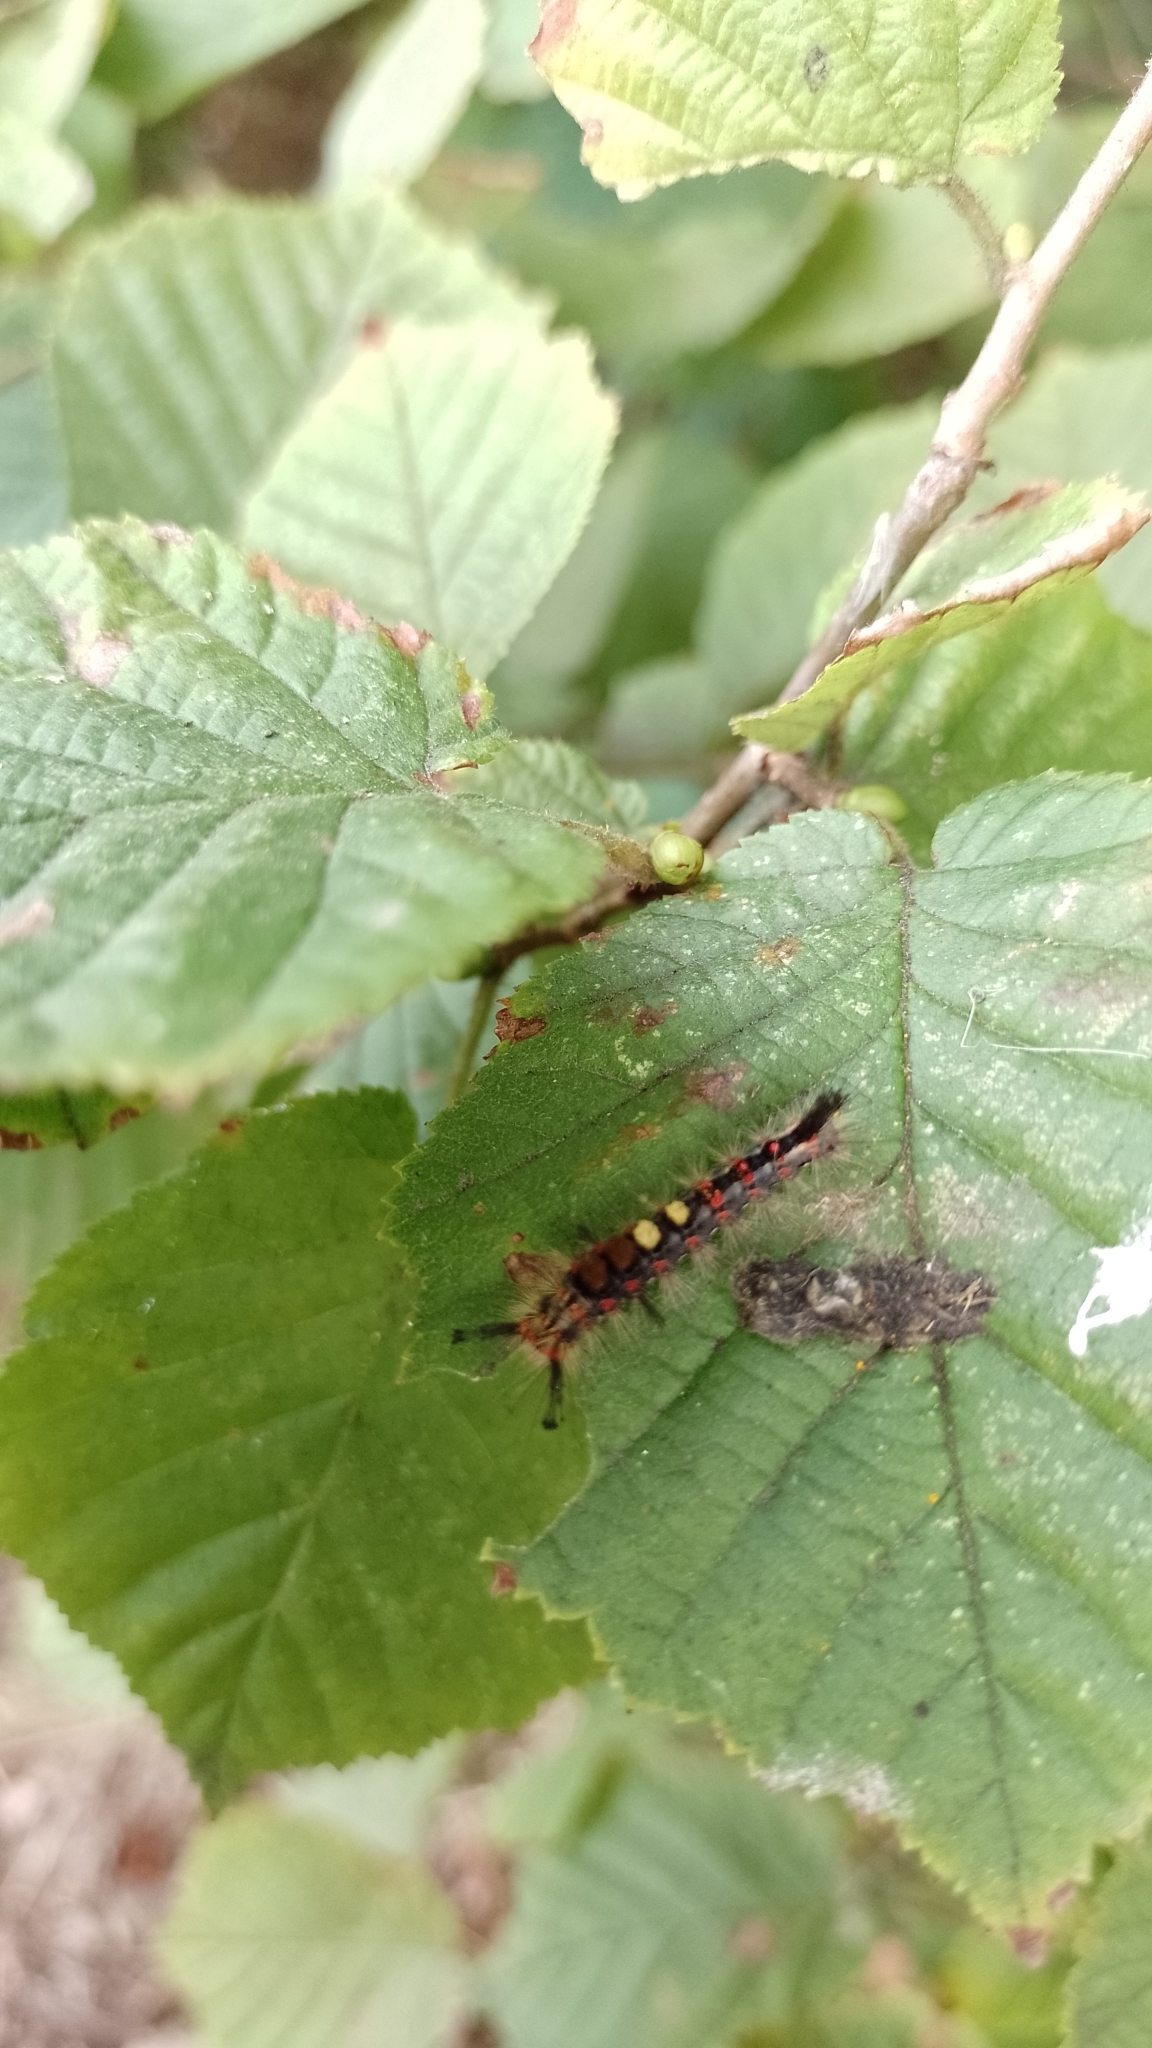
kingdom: Animalia
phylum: Arthropoda
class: Insecta
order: Lepidoptera
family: Erebidae
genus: Orgyia
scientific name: Orgyia antiqua
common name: Vapourer
